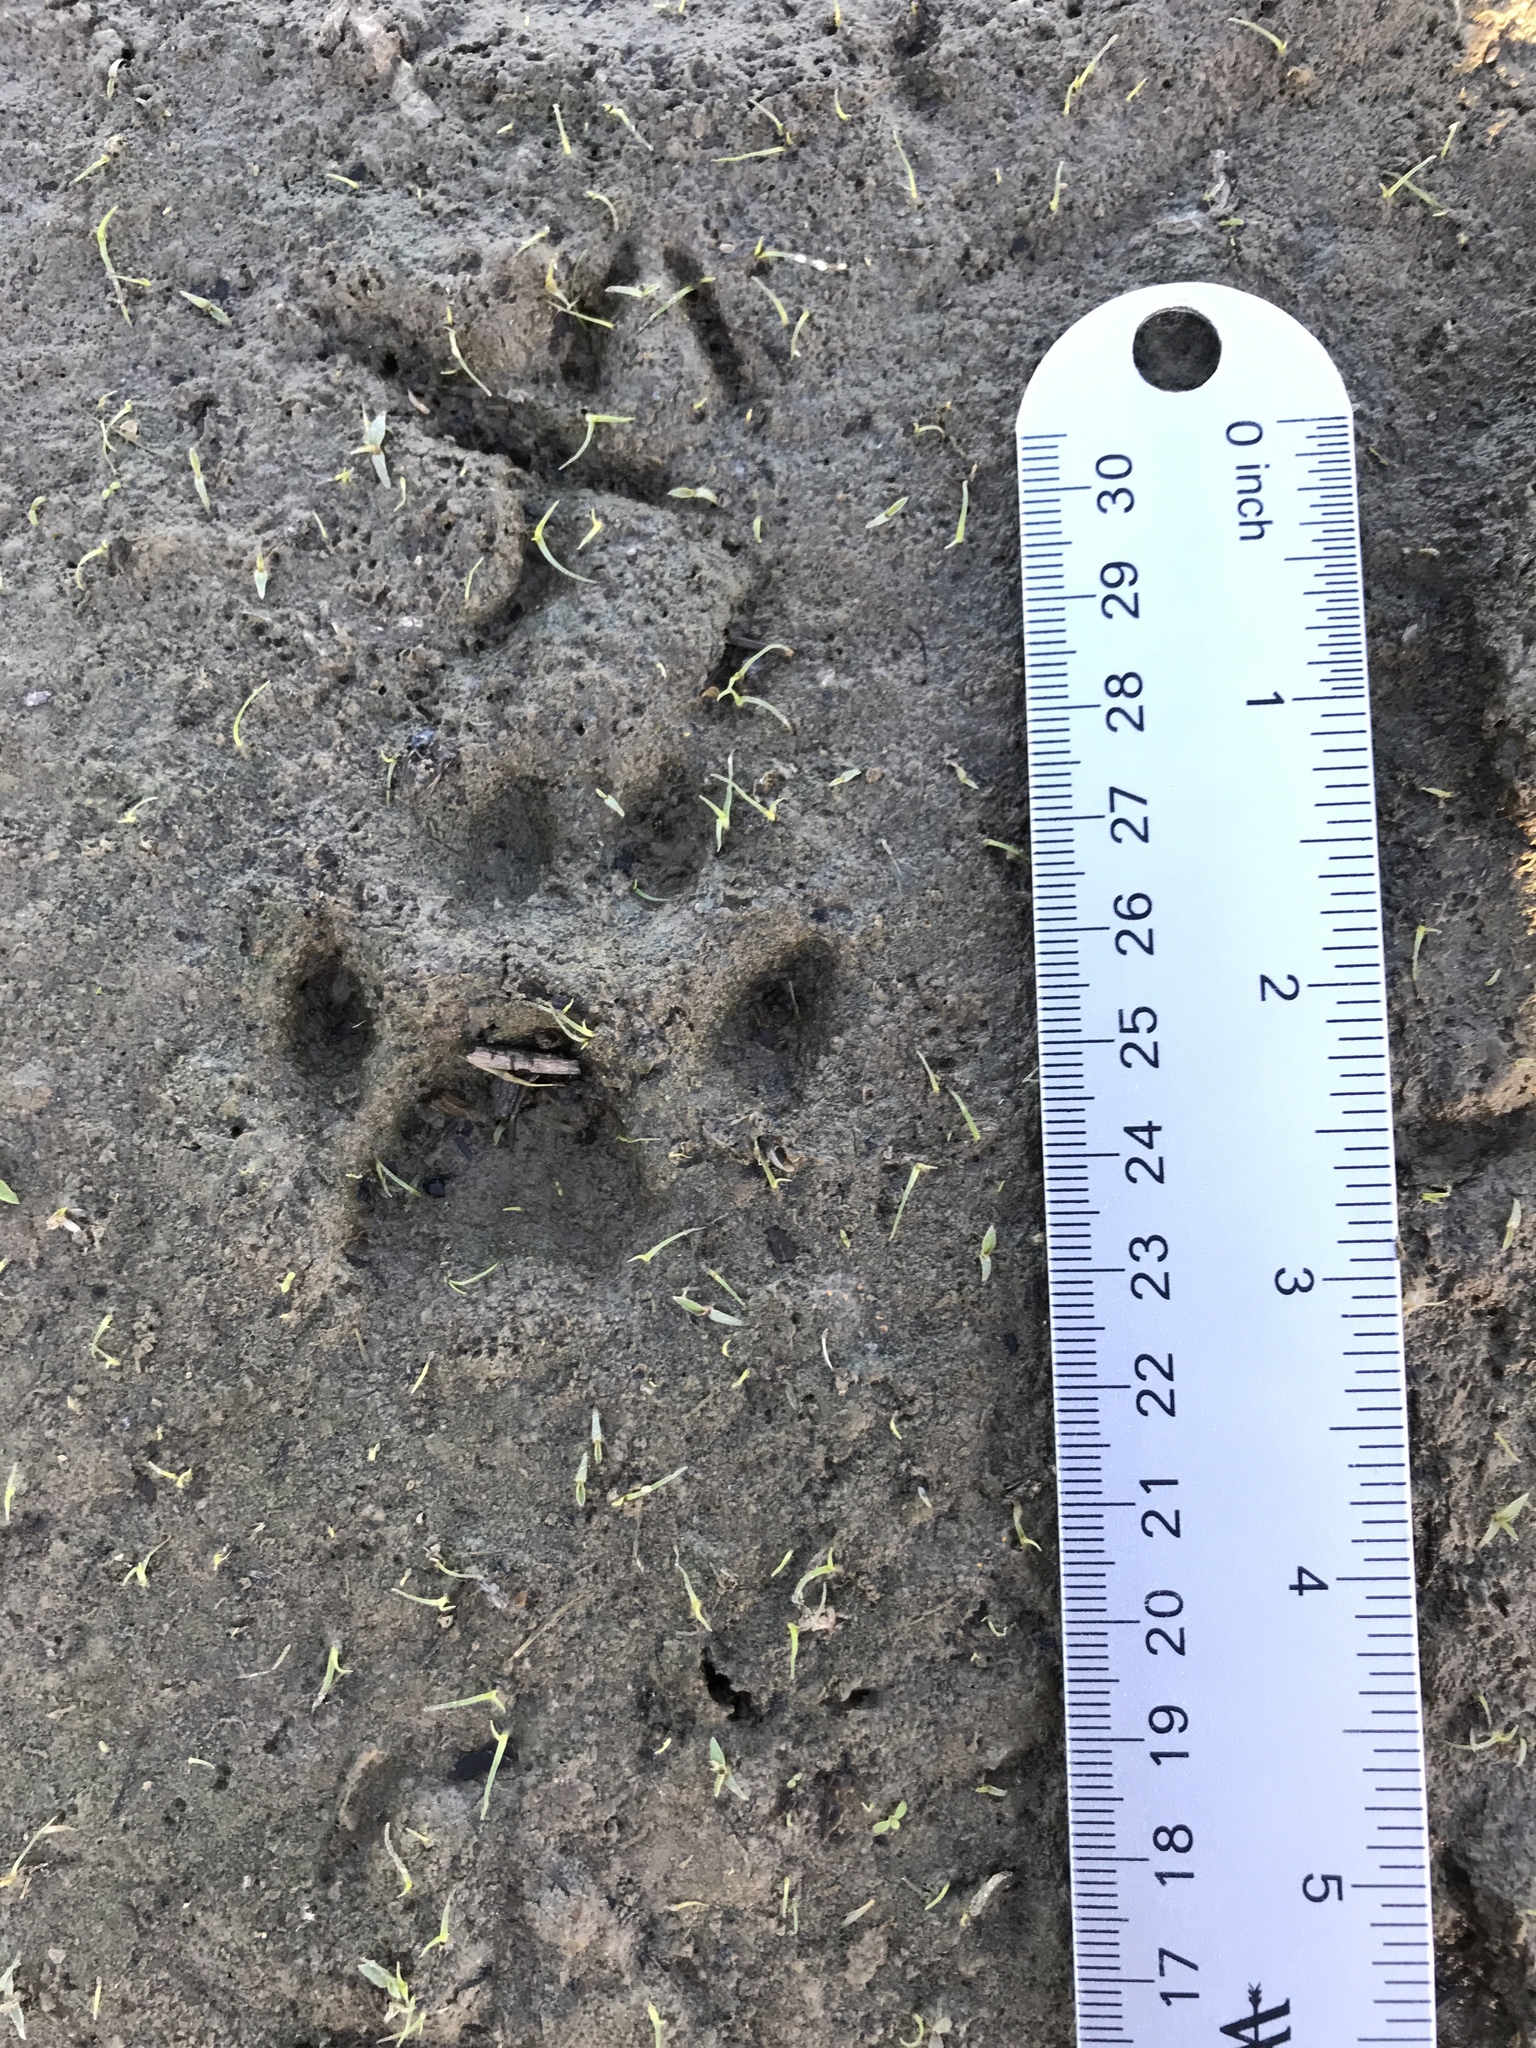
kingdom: Animalia
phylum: Chordata
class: Mammalia
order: Carnivora
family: Felidae
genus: Lynx
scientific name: Lynx rufus
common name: Bobcat
